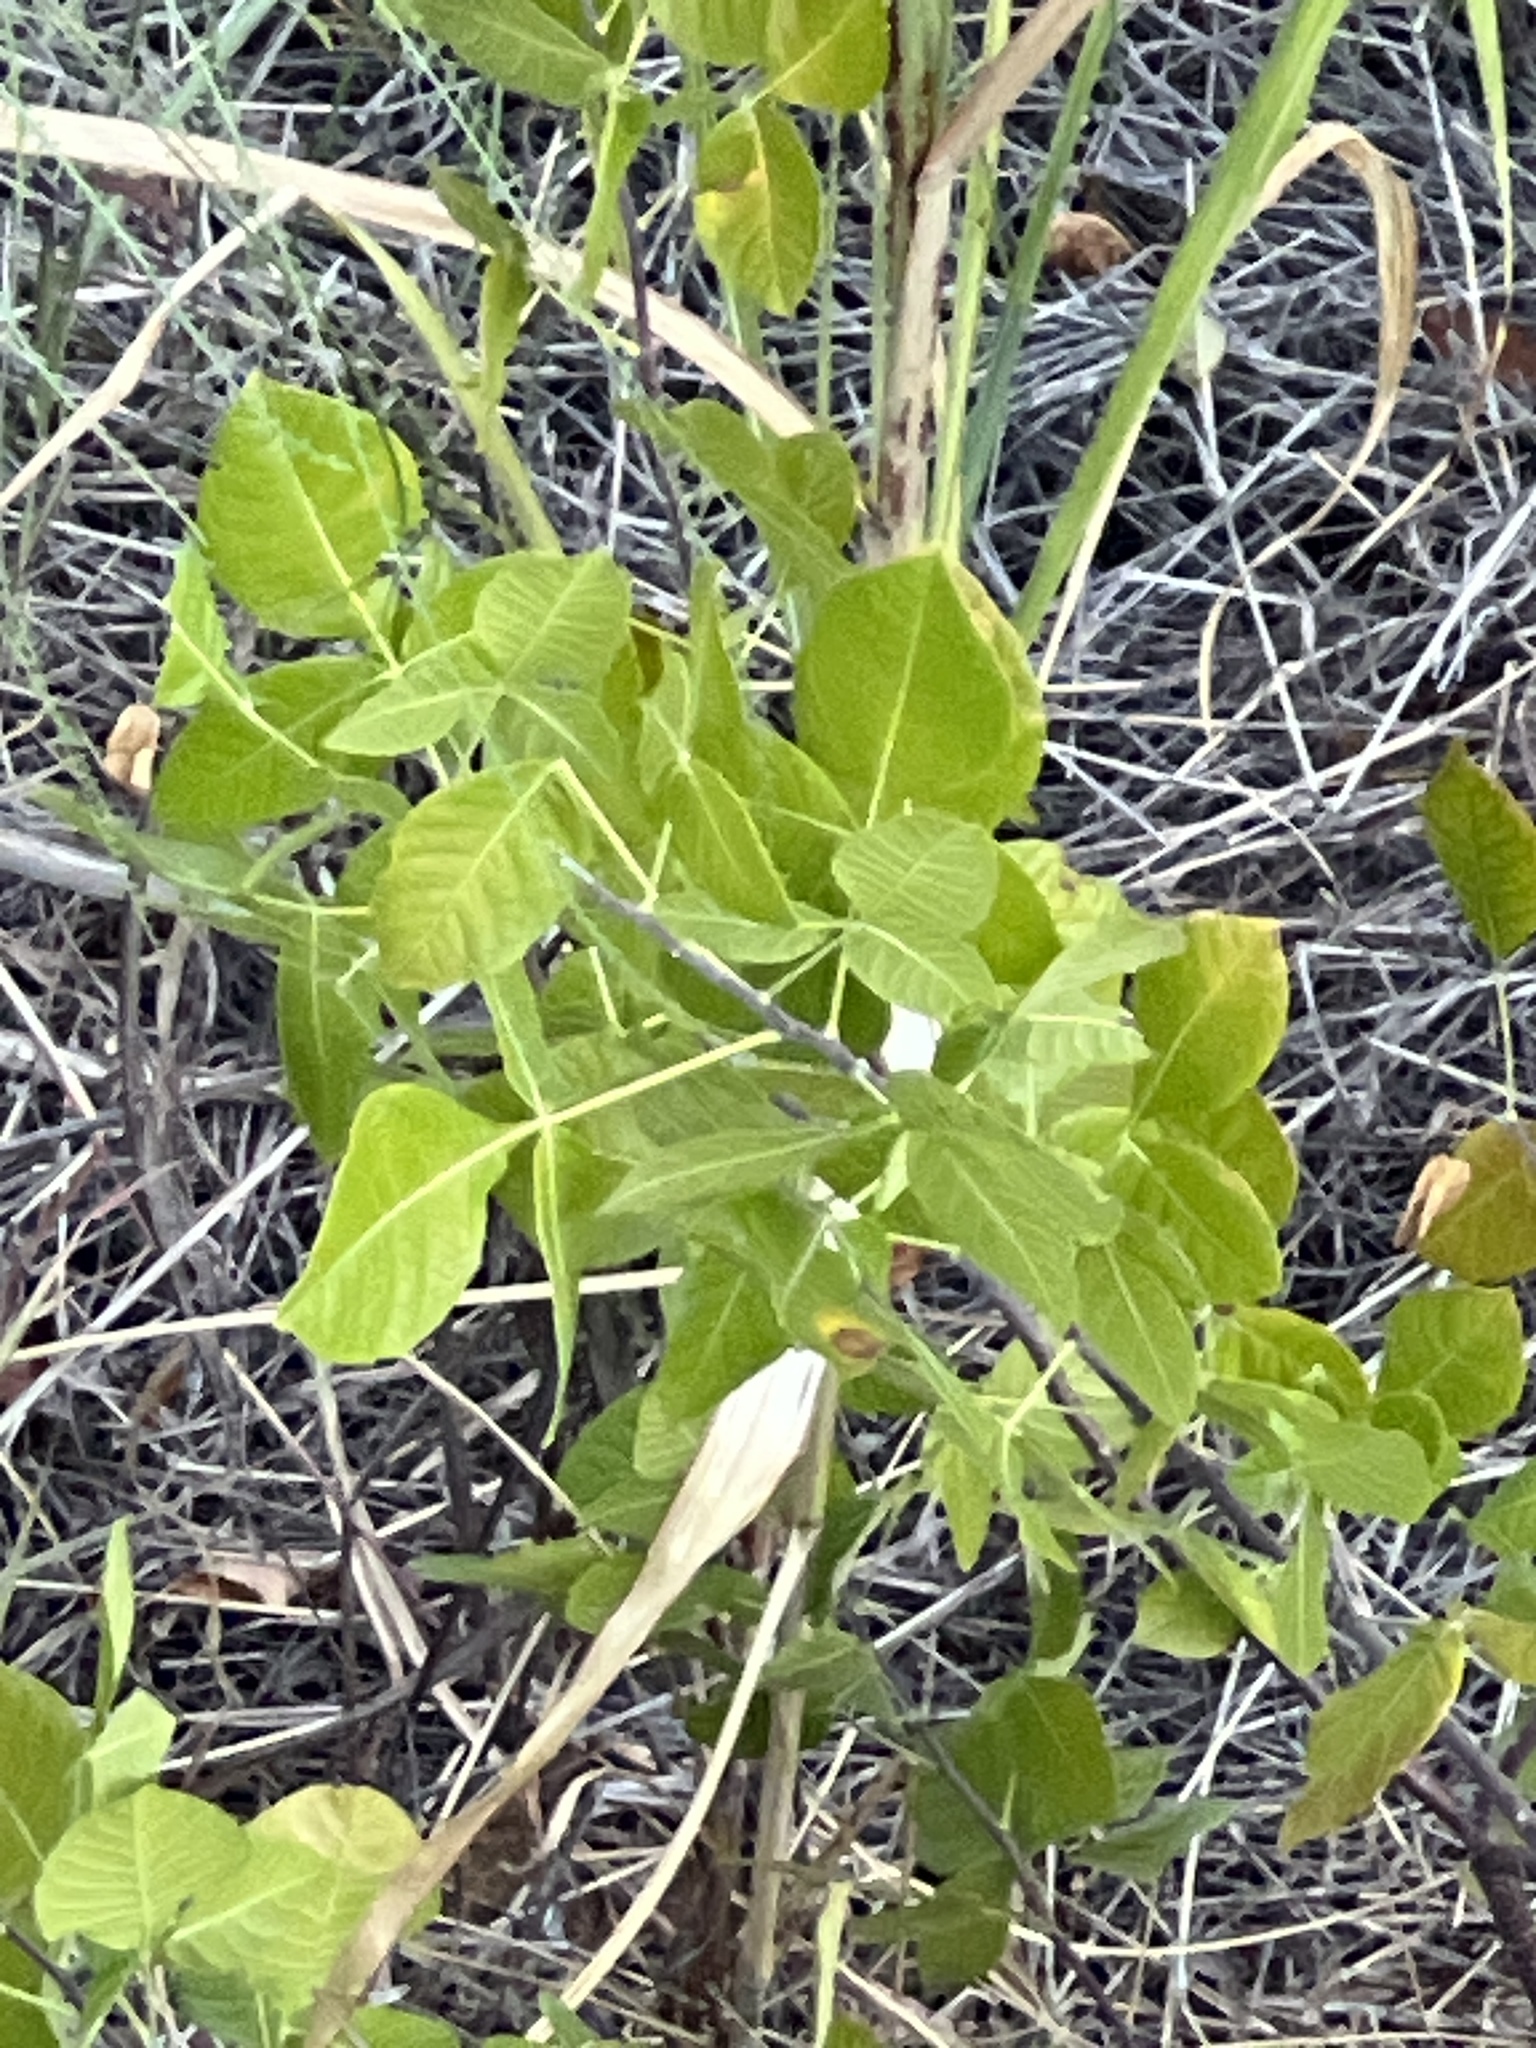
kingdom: Plantae
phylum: Tracheophyta
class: Magnoliopsida
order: Sapindales
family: Rutaceae
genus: Ptelea
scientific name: Ptelea trifoliata
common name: Common hop-tree
